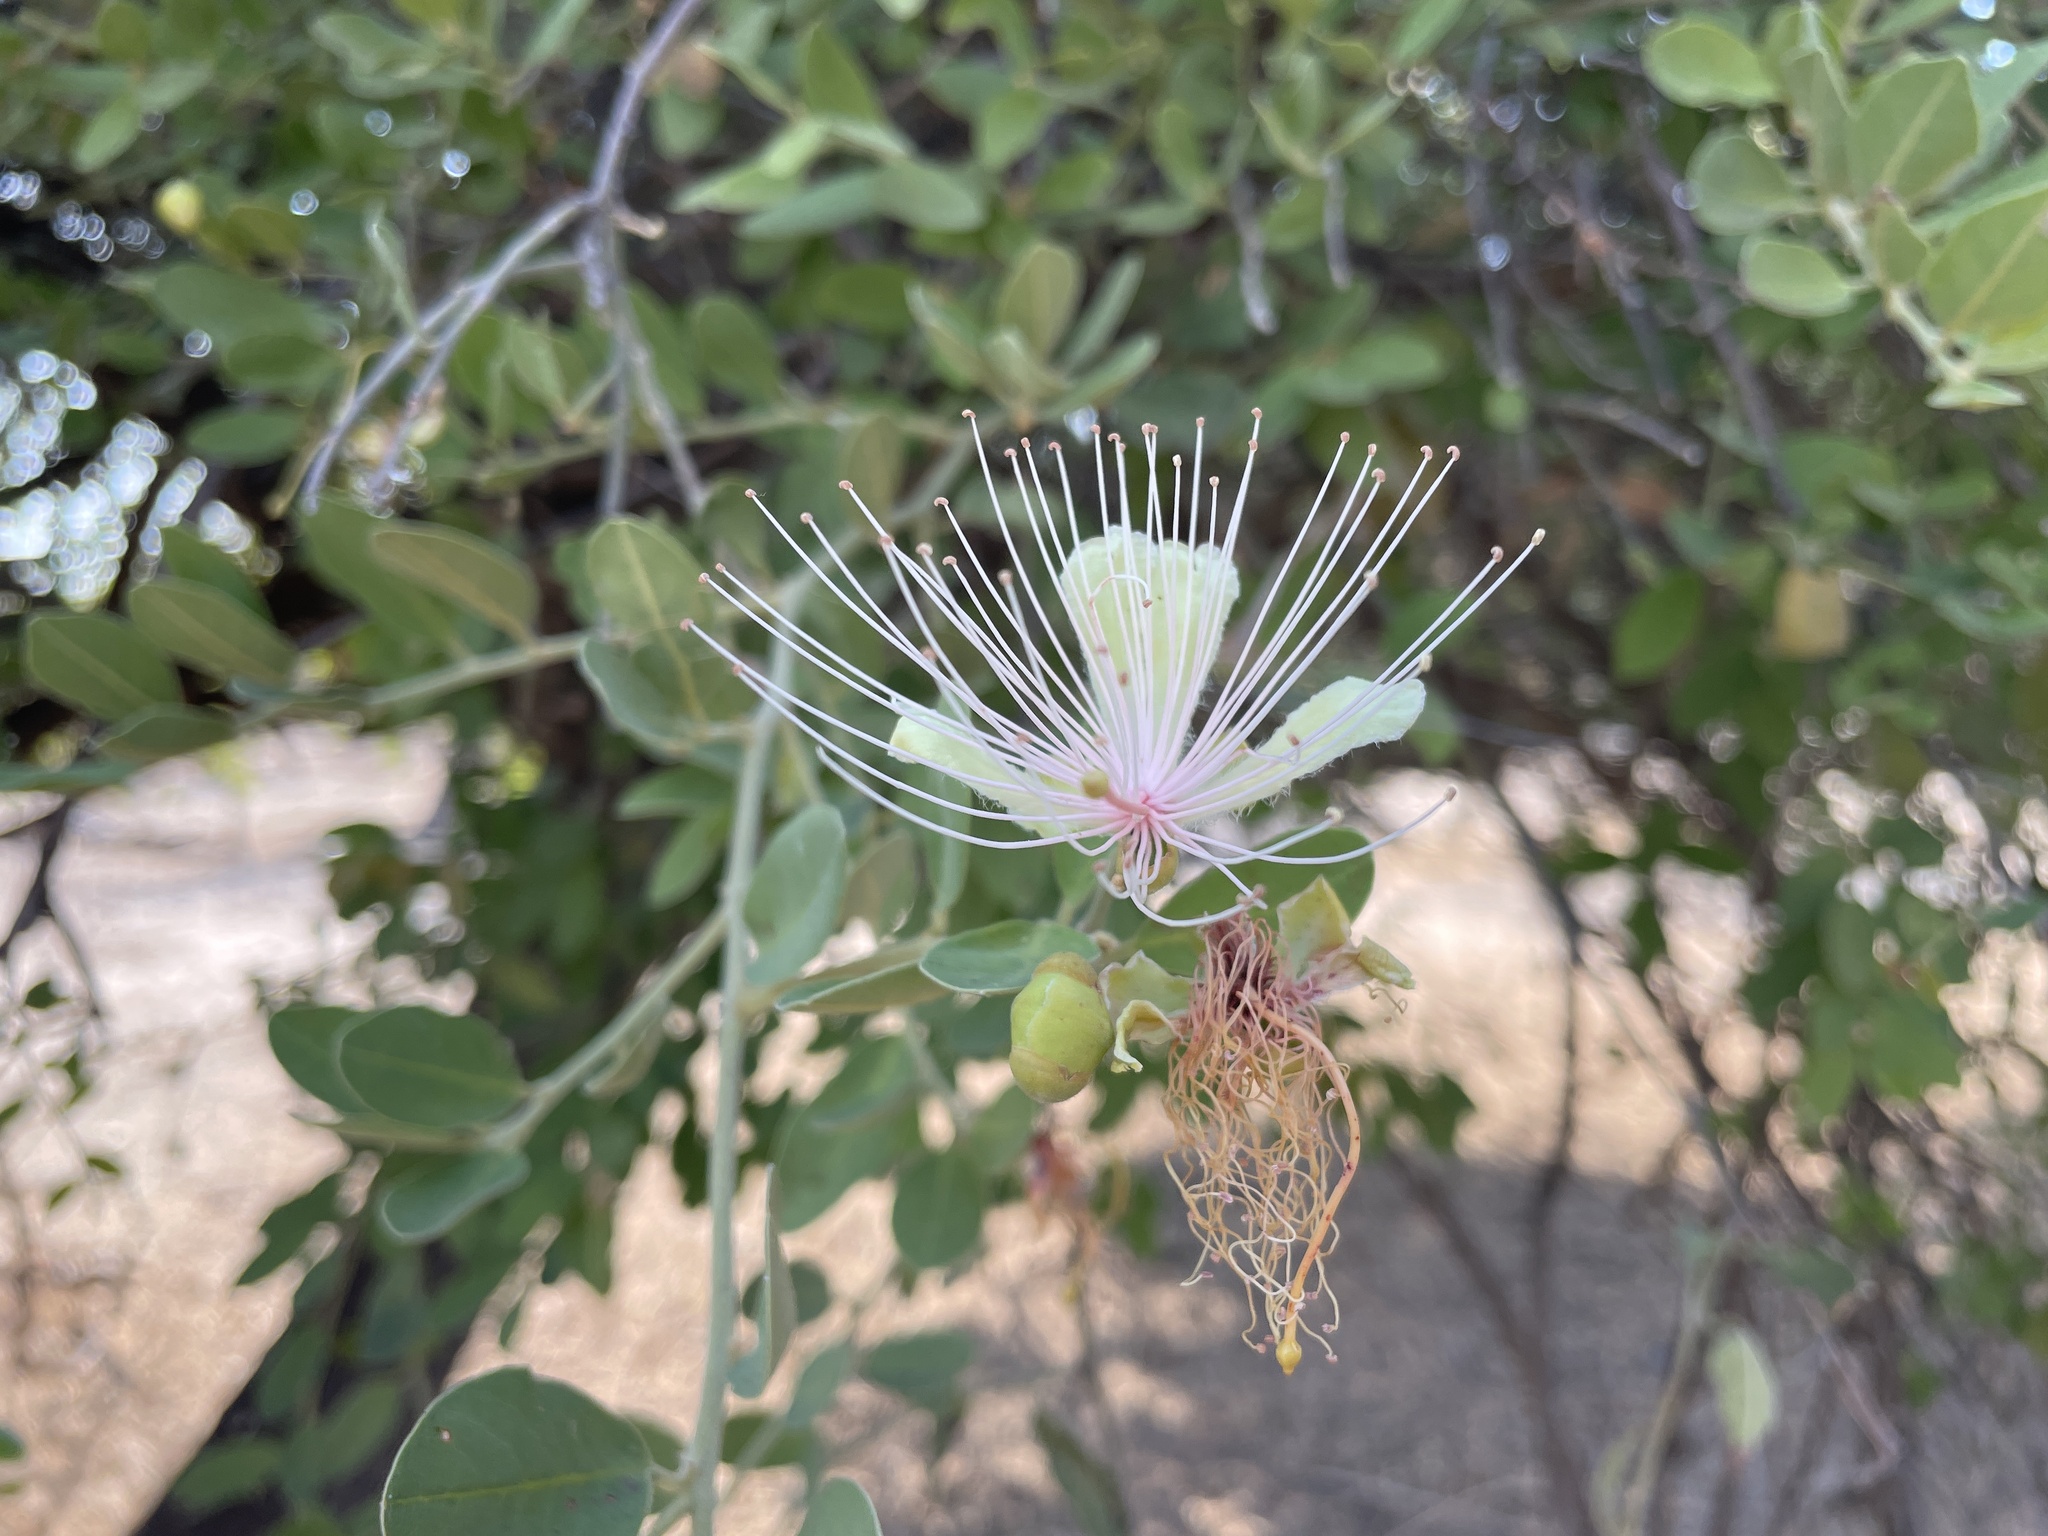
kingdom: Plantae
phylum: Tracheophyta
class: Magnoliopsida
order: Brassicales
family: Capparaceae
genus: Capparis
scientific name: Capparis tomentosa
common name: African caper
